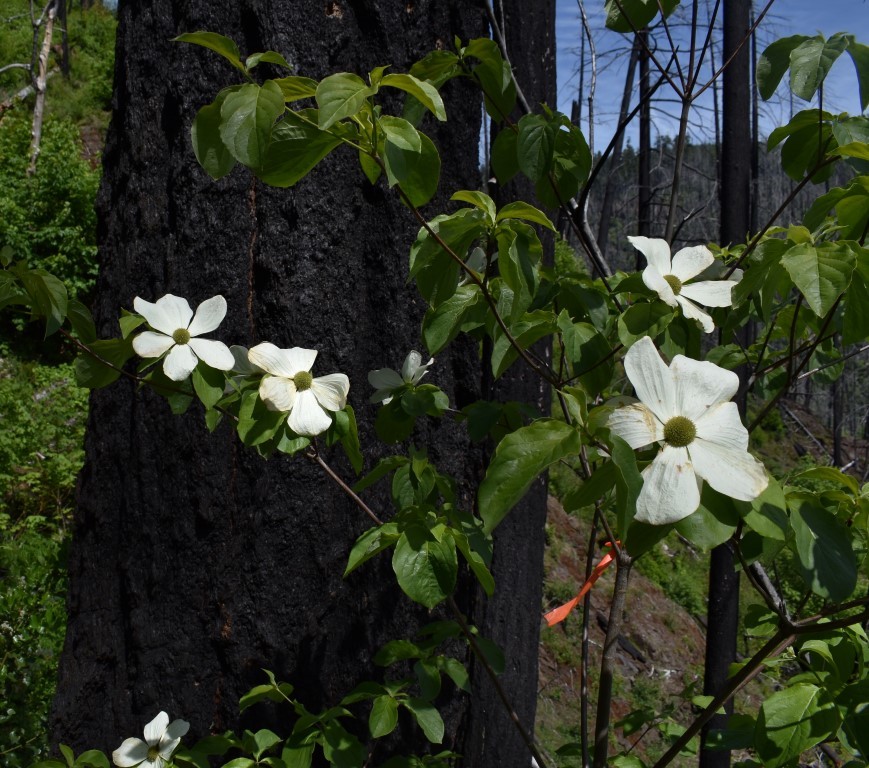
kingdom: Plantae
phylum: Tracheophyta
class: Magnoliopsida
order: Cornales
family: Cornaceae
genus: Cornus
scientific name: Cornus nuttallii
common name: Pacific dogwood
